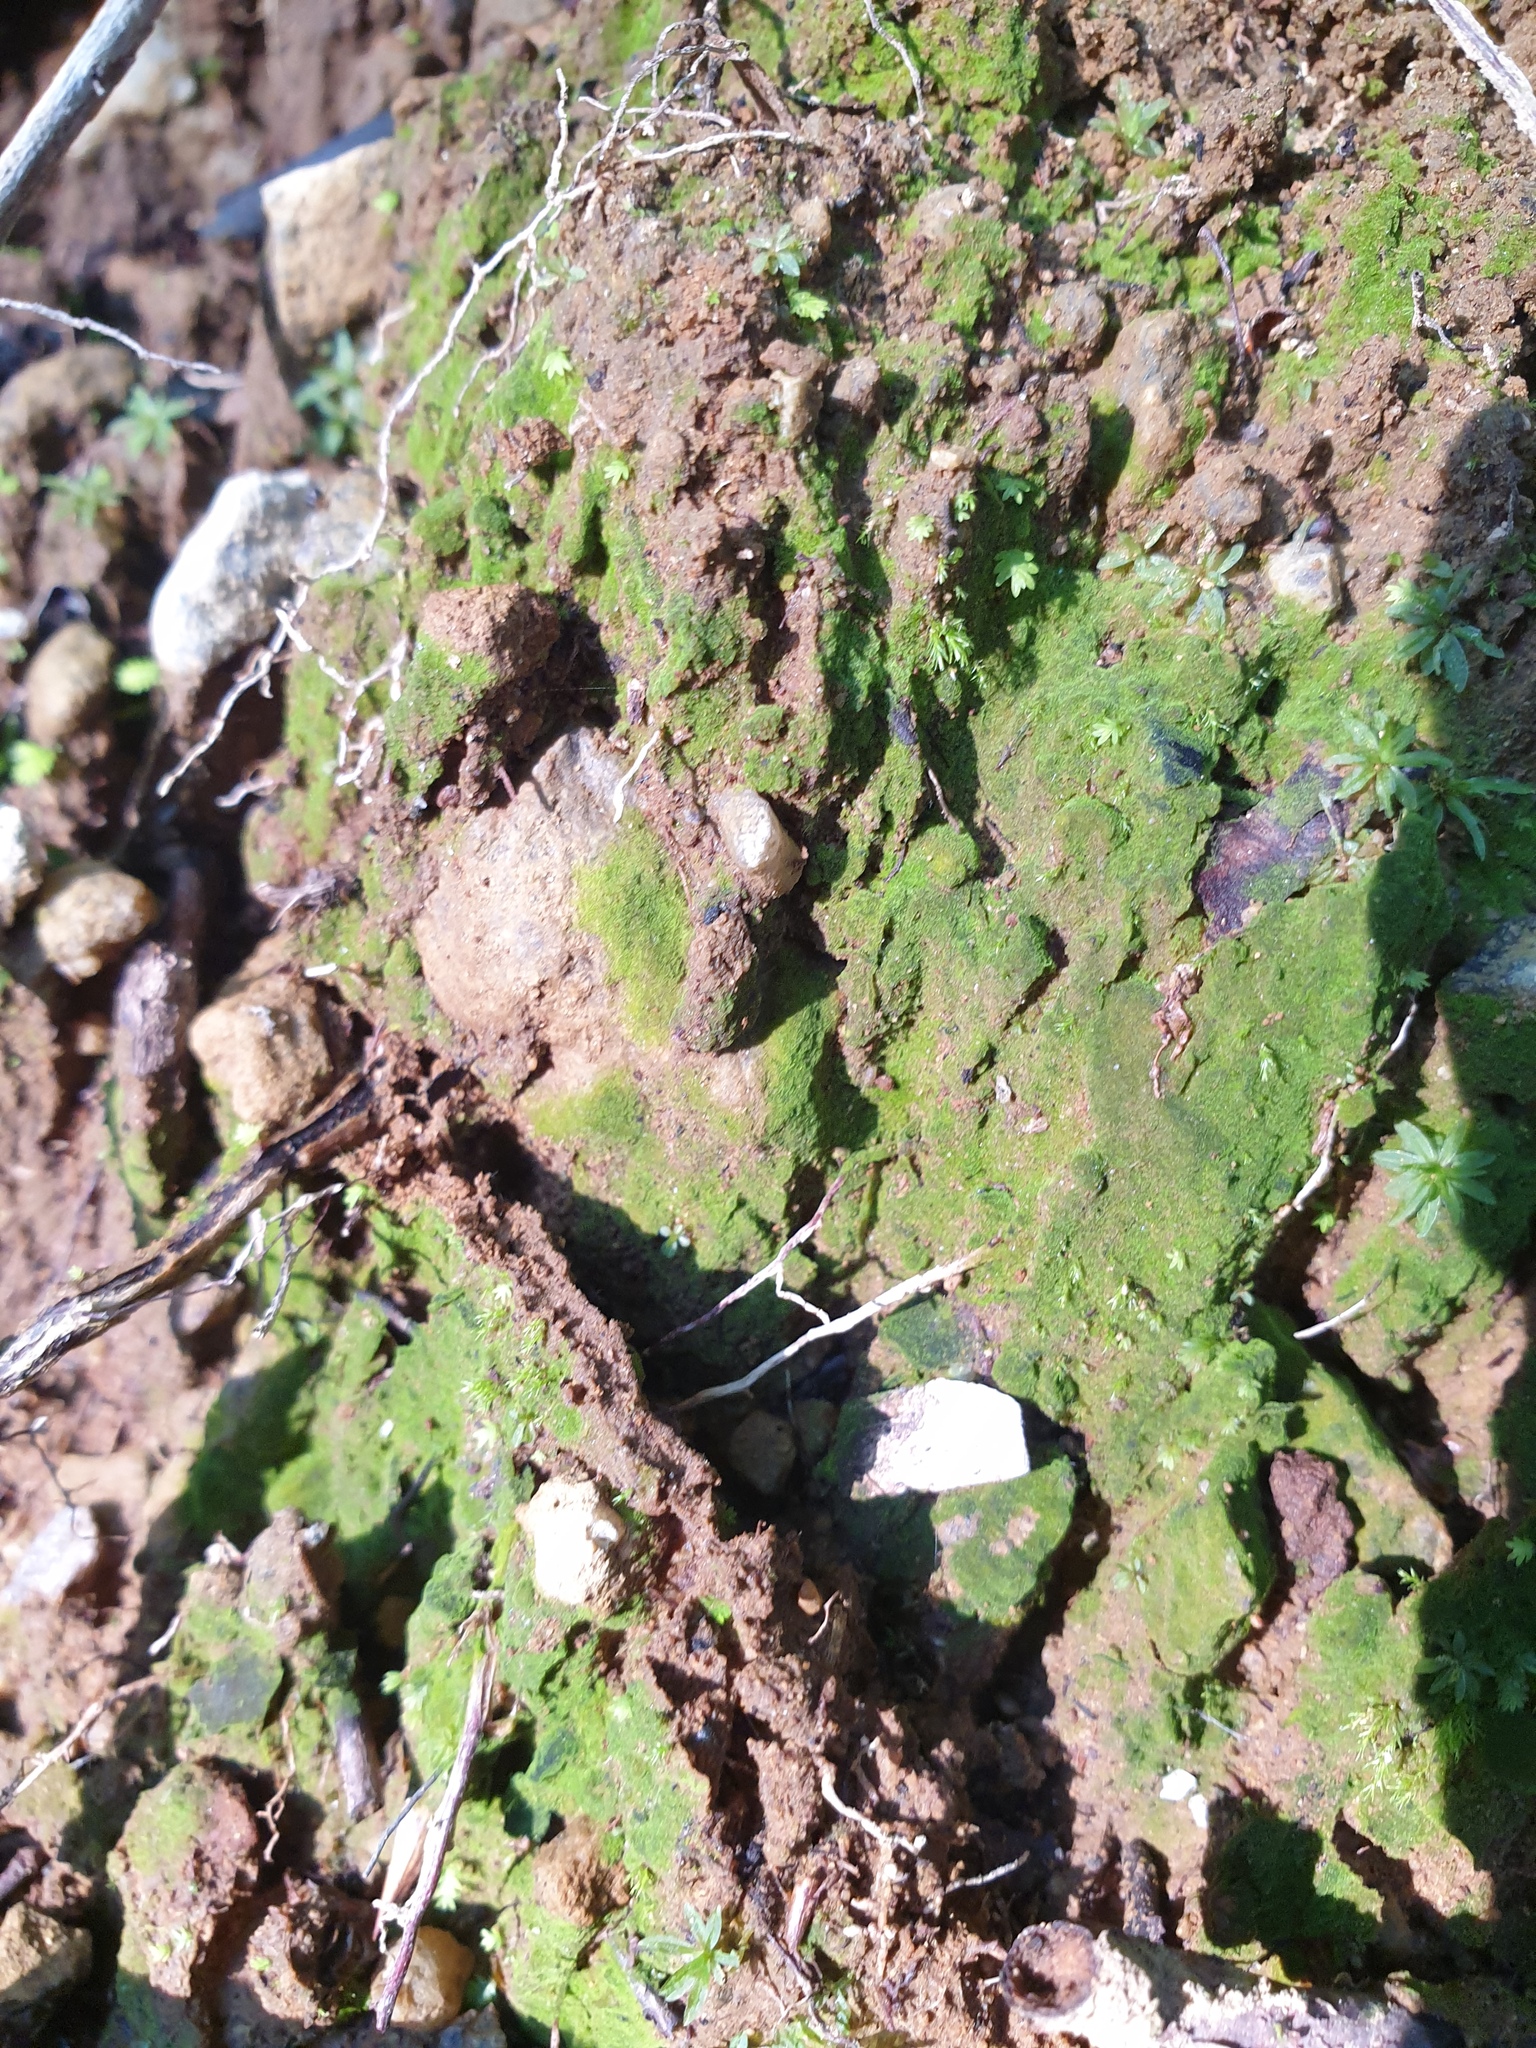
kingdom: Plantae
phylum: Bryophyta
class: Polytrichopsida
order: Polytrichales
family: Polytrichaceae
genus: Pogonatum
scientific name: Pogonatum pensilvanicum
